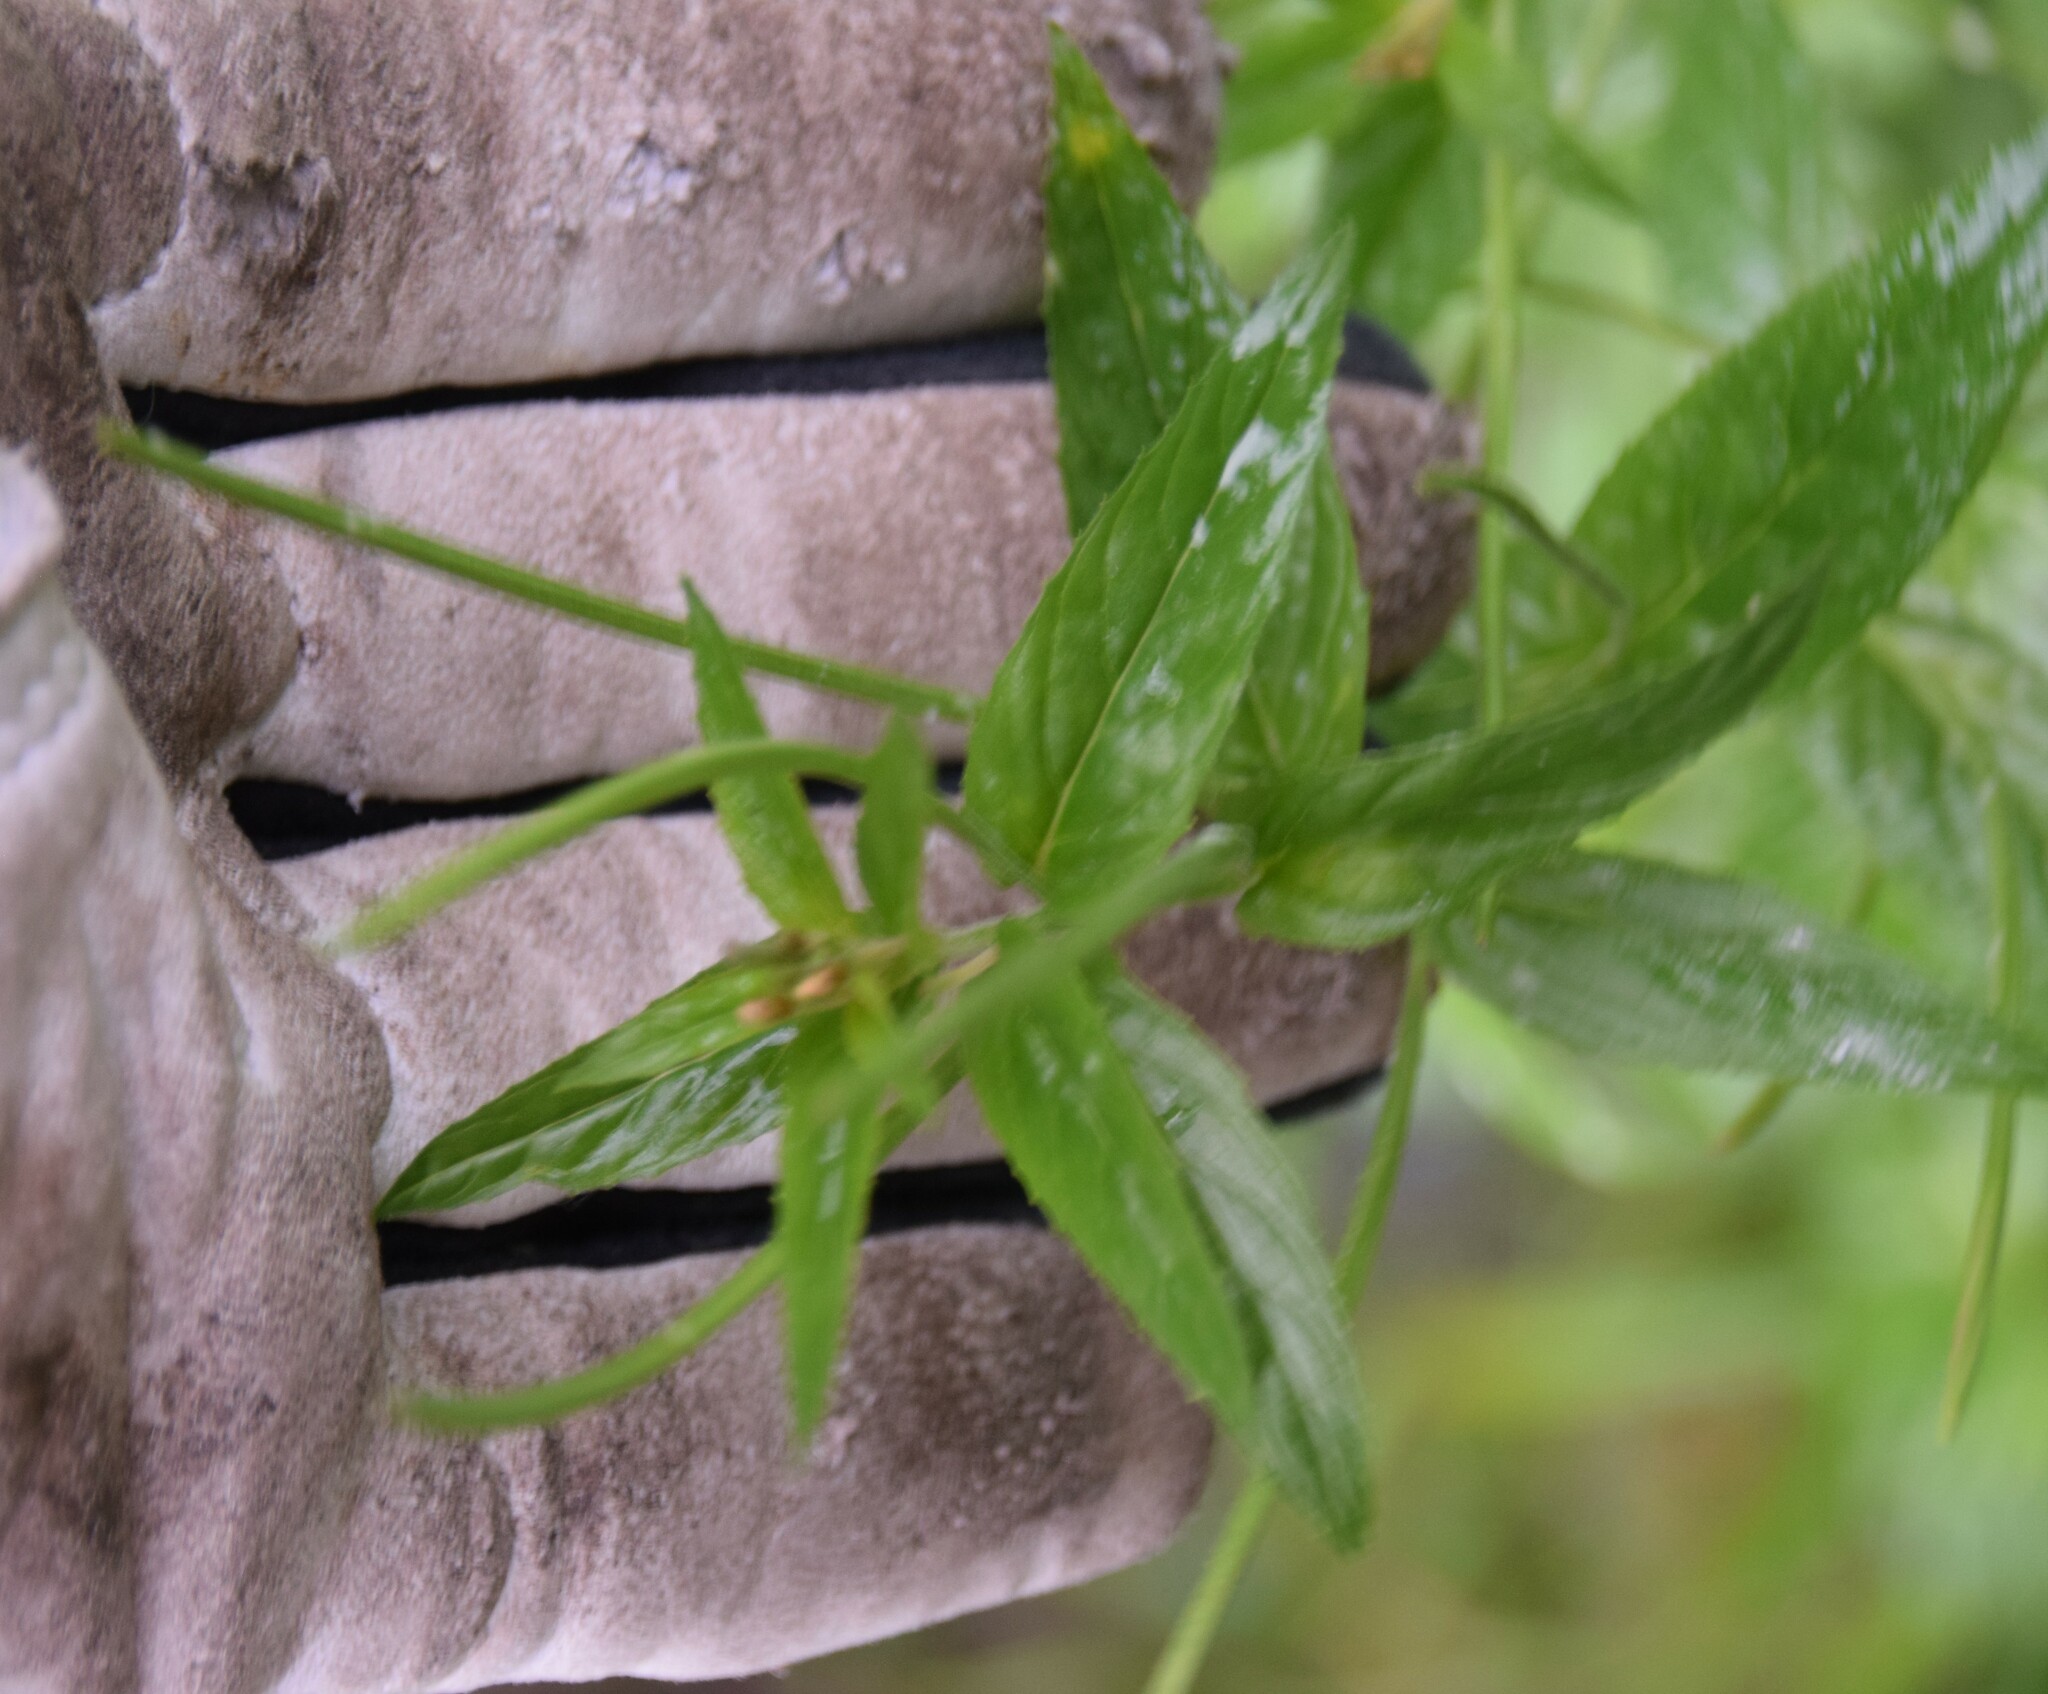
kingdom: Plantae
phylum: Tracheophyta
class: Magnoliopsida
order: Myrtales
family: Onagraceae
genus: Epilobium
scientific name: Epilobium ciliatum
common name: American willowherb
